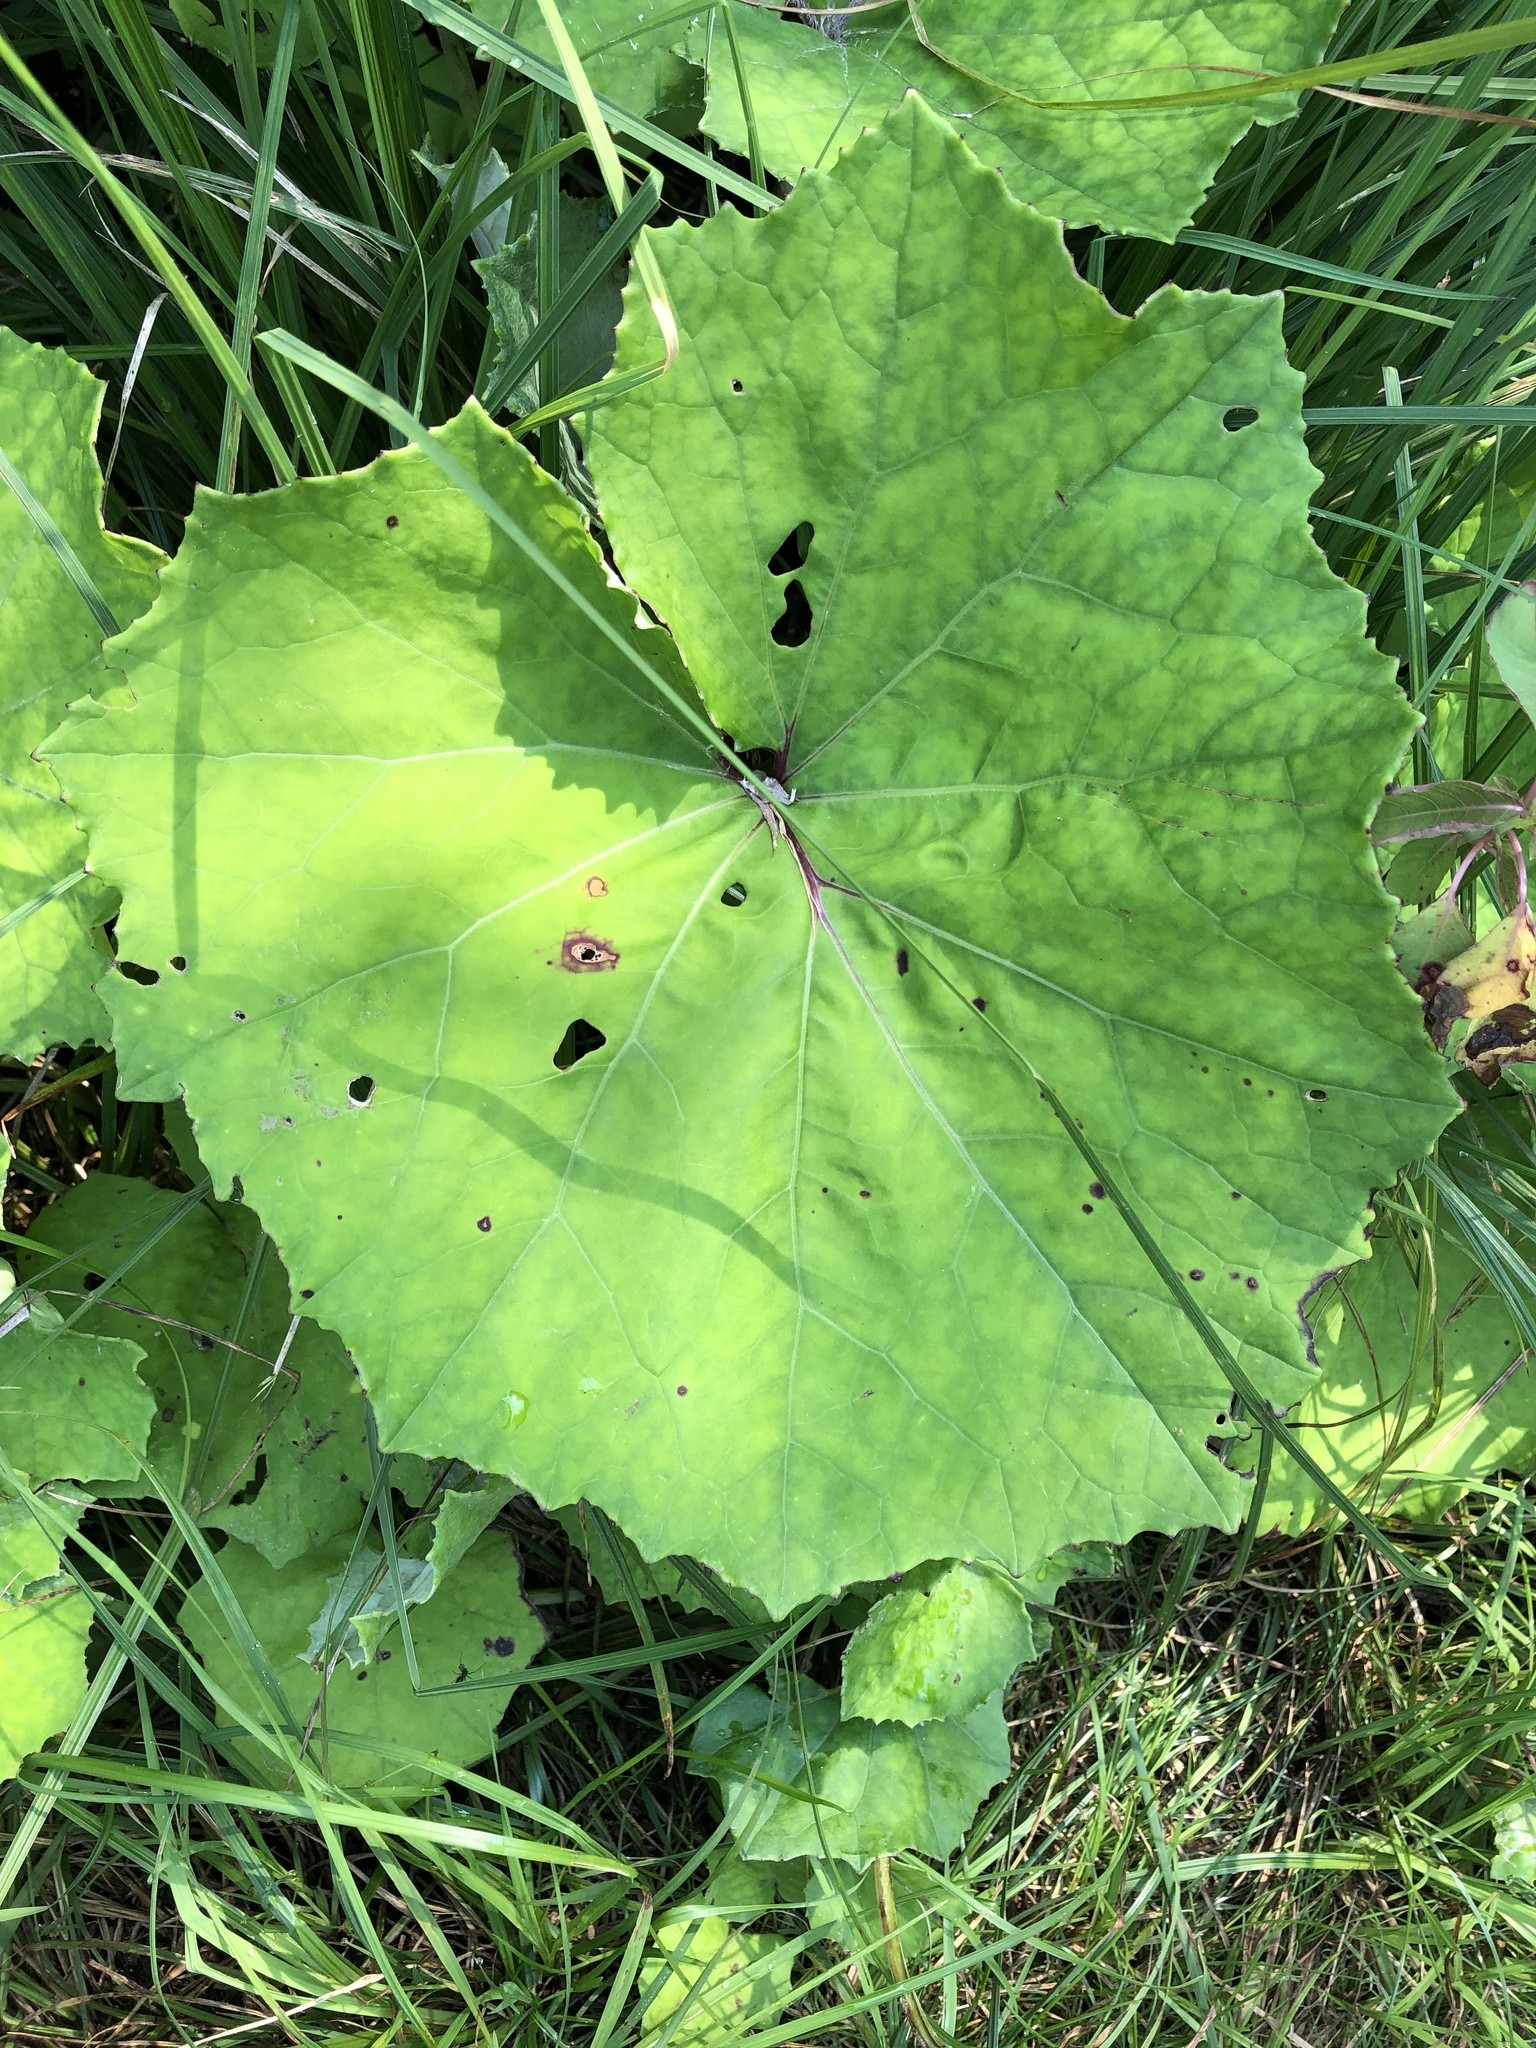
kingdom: Plantae
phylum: Tracheophyta
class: Magnoliopsida
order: Asterales
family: Asteraceae
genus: Tussilago
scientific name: Tussilago farfara
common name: Coltsfoot
